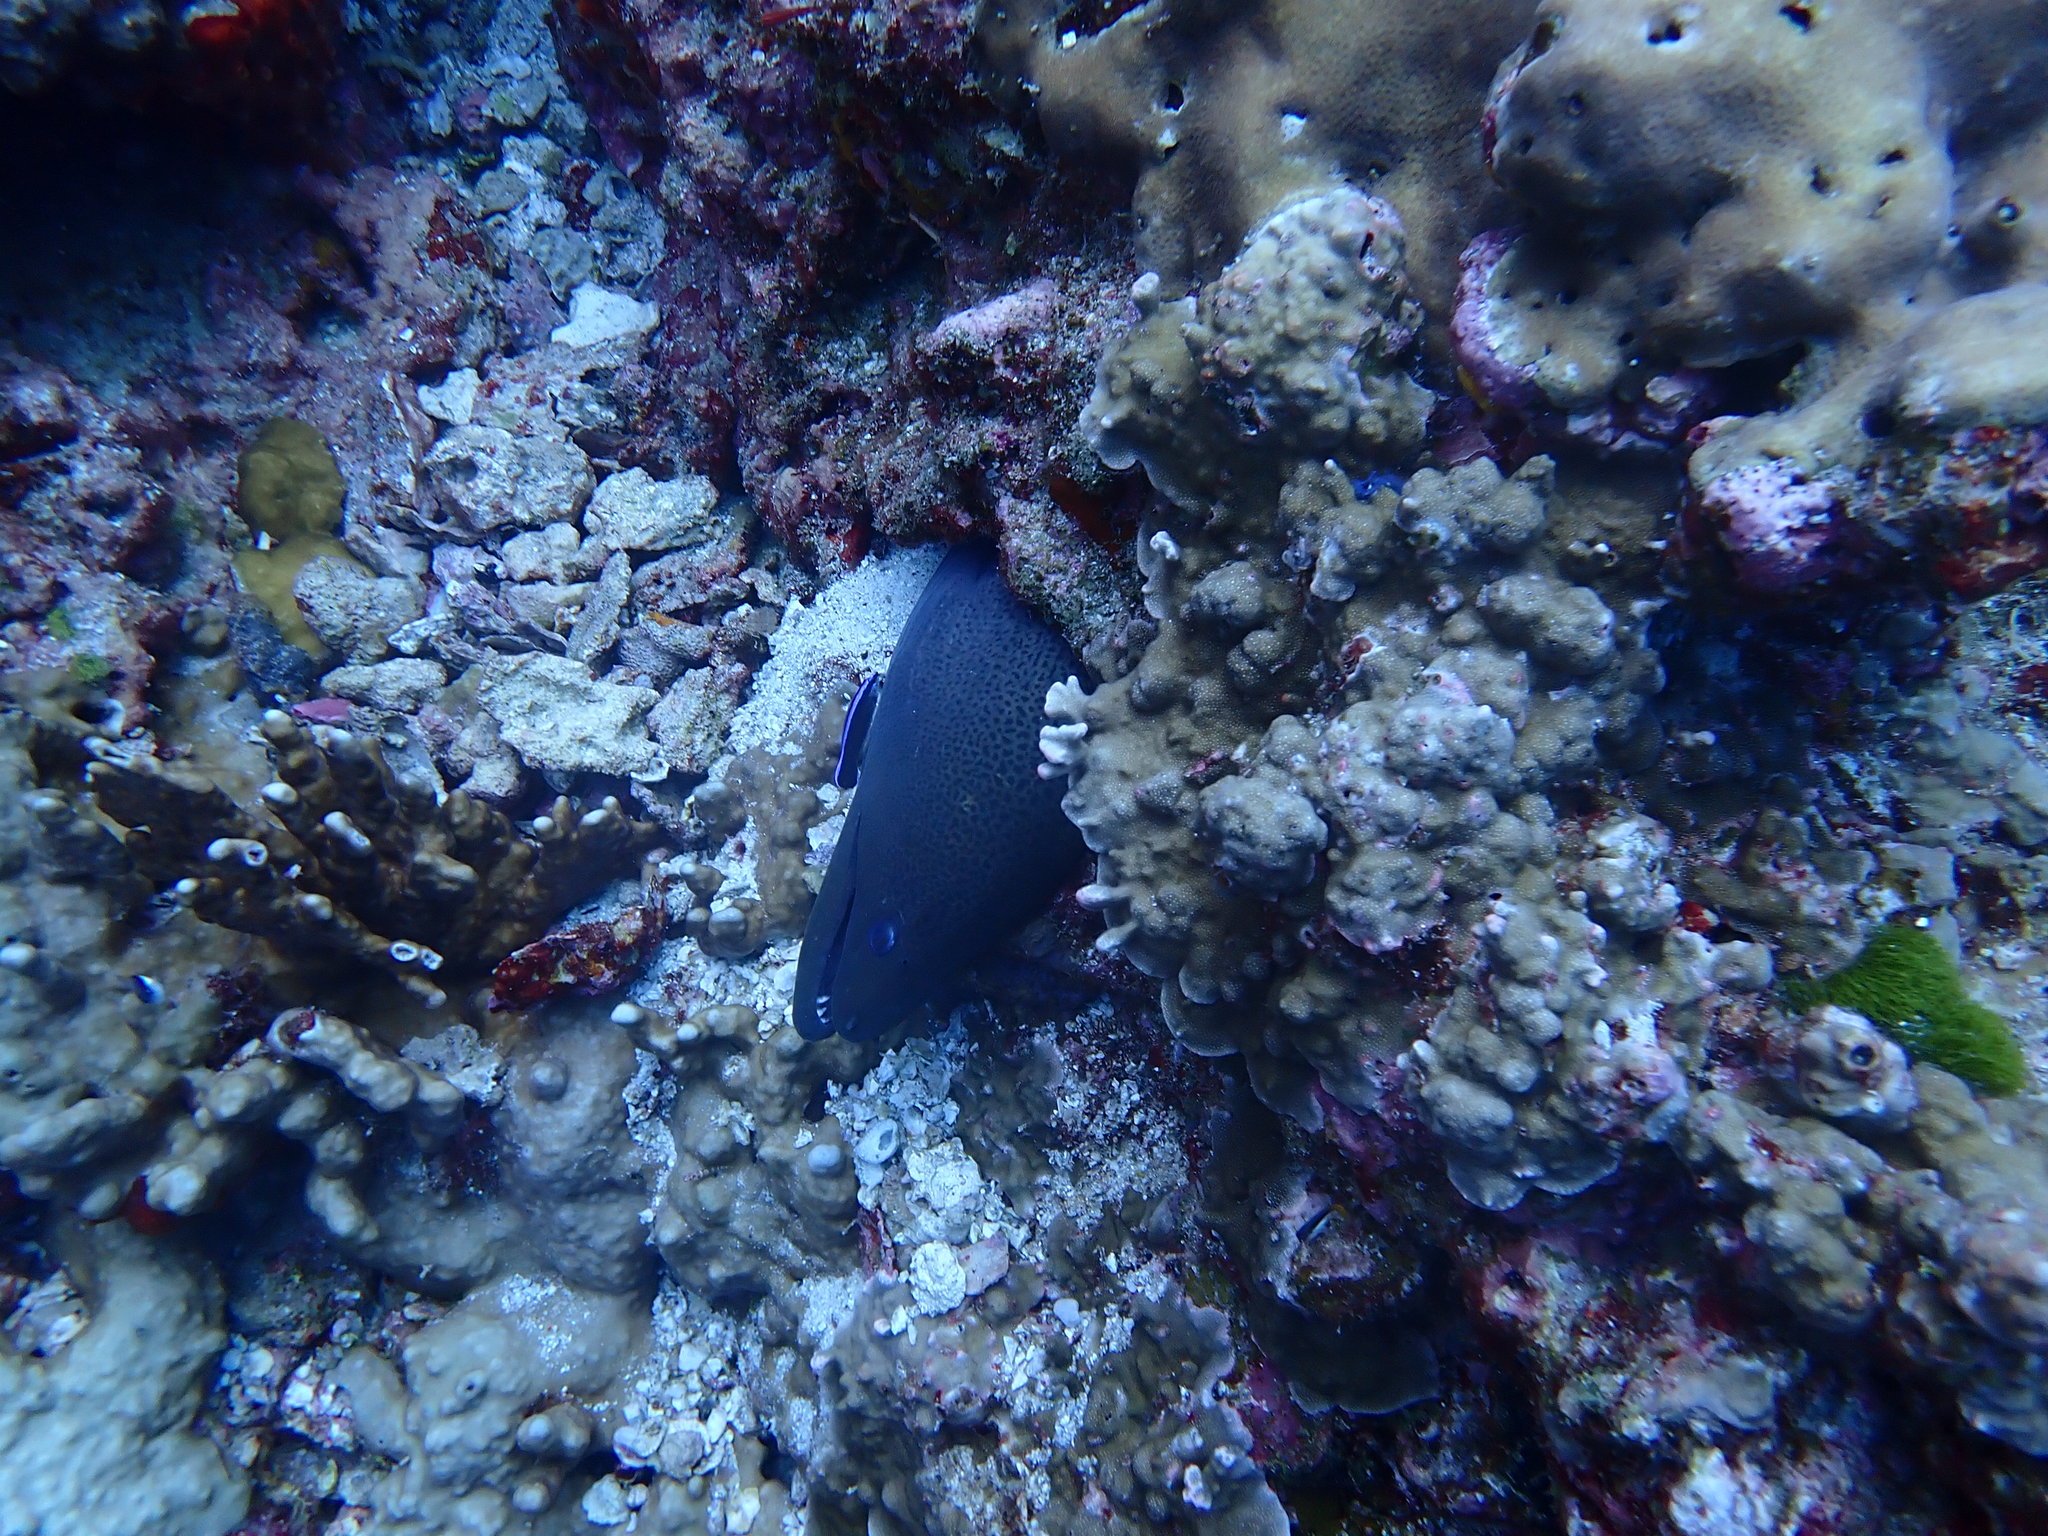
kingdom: Animalia
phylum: Chordata
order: Anguilliformes
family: Muraenidae
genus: Gymnothorax
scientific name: Gymnothorax javanicus
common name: Giant moray
